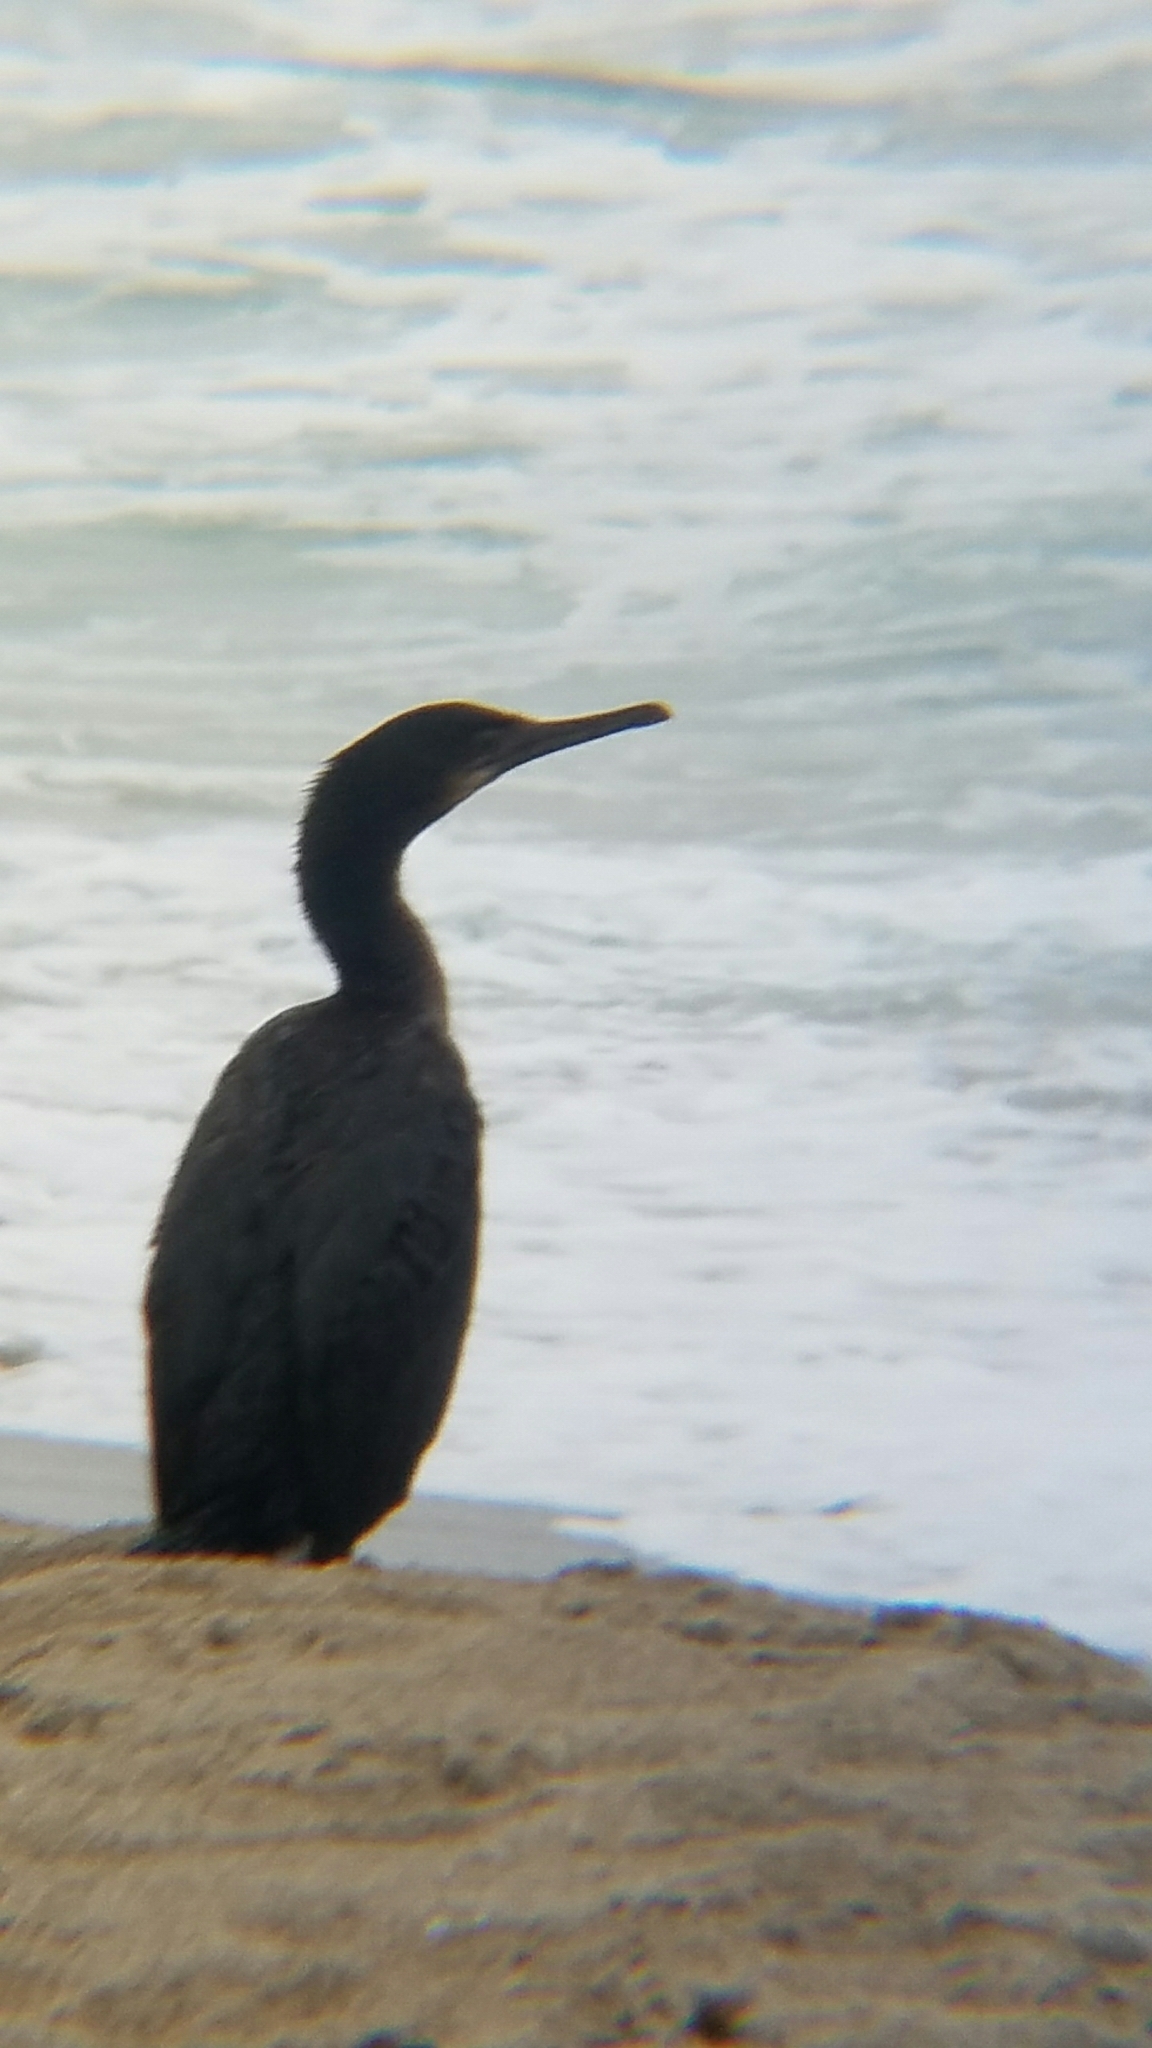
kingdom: Animalia
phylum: Chordata
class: Aves
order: Suliformes
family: Phalacrocoracidae
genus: Phalacrocorax
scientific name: Phalacrocorax auritus
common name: Double-crested cormorant
